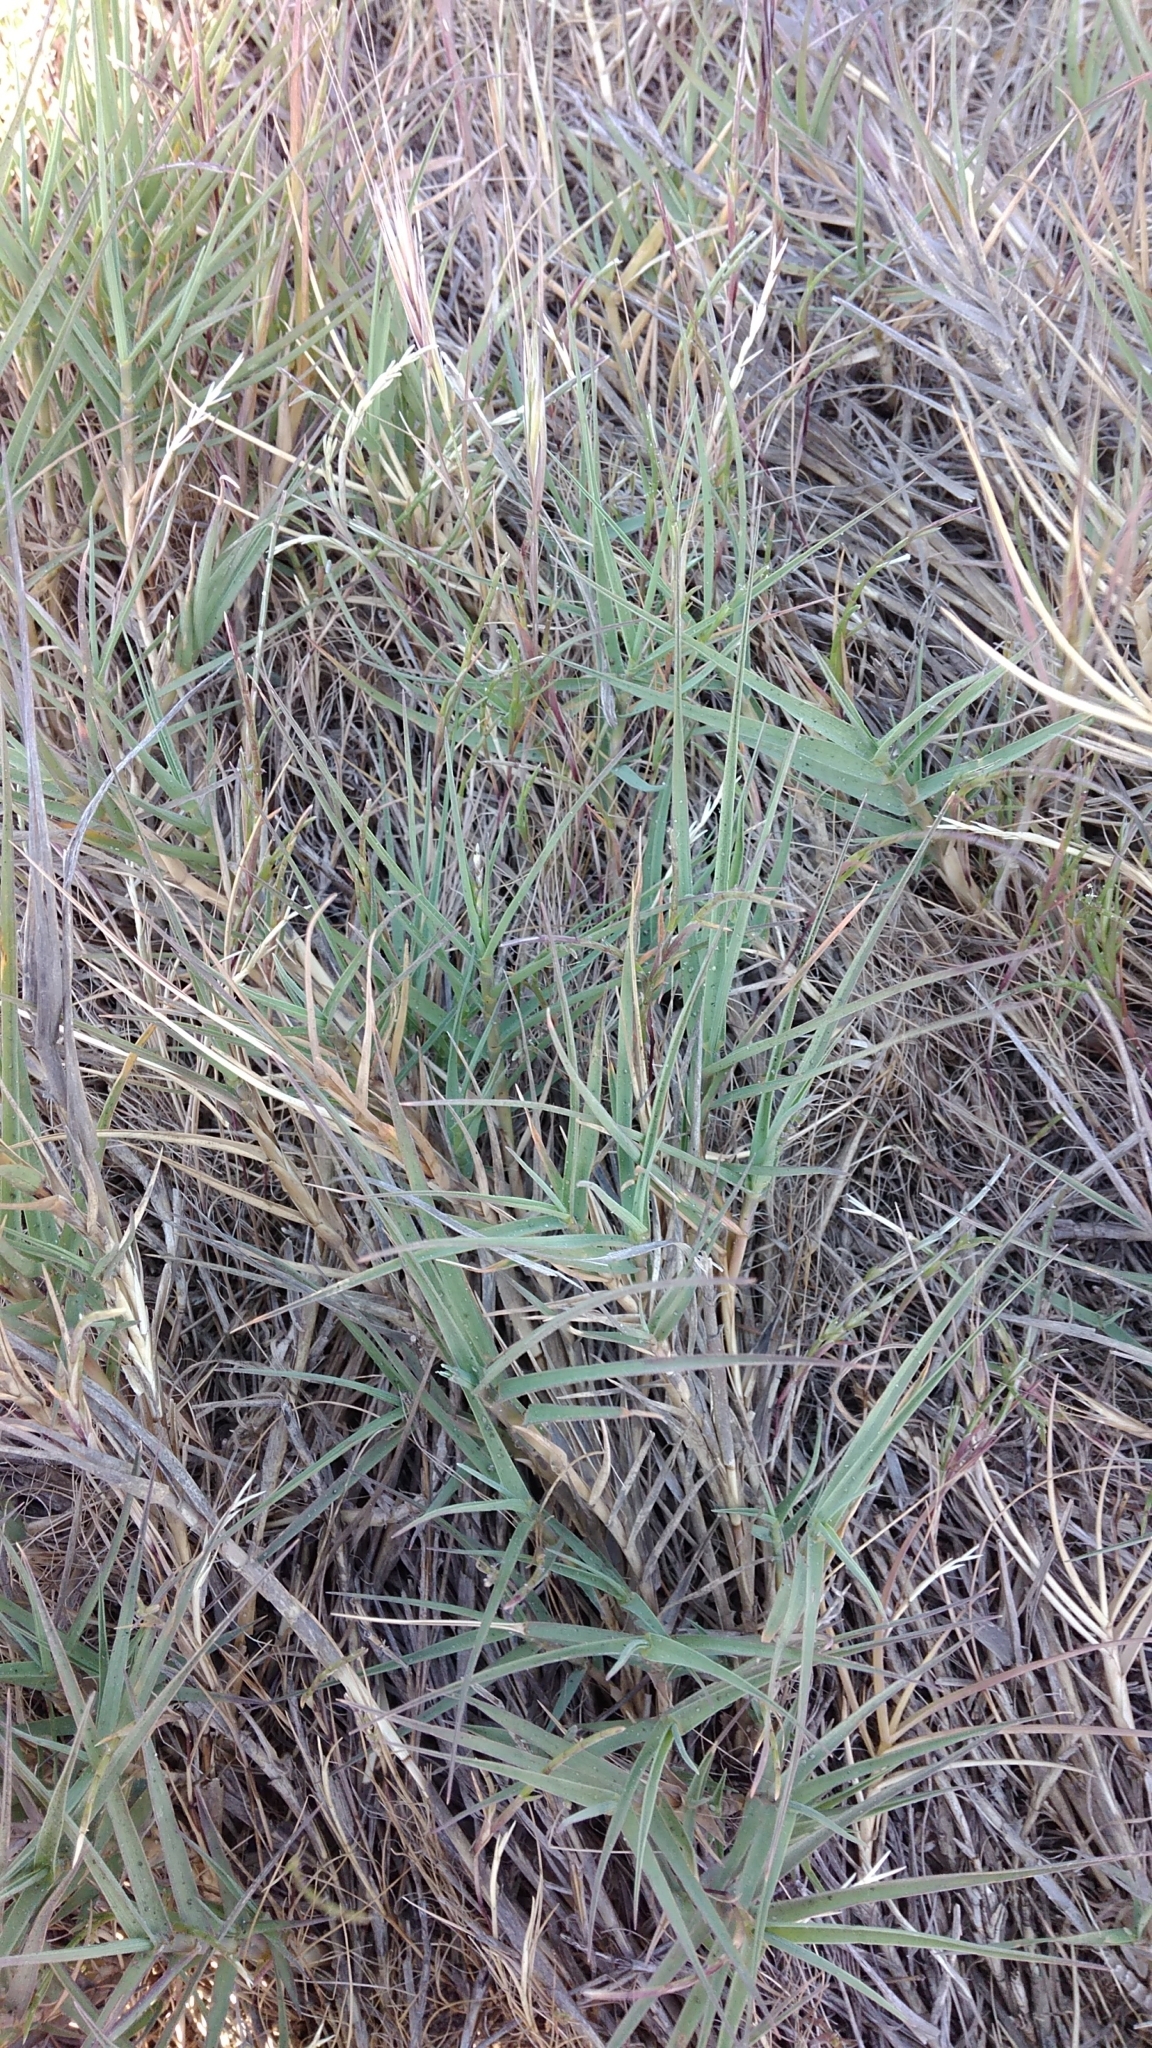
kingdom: Plantae
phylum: Tracheophyta
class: Liliopsida
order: Poales
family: Poaceae
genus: Distichlis
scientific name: Distichlis spicata
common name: Saltgrass
